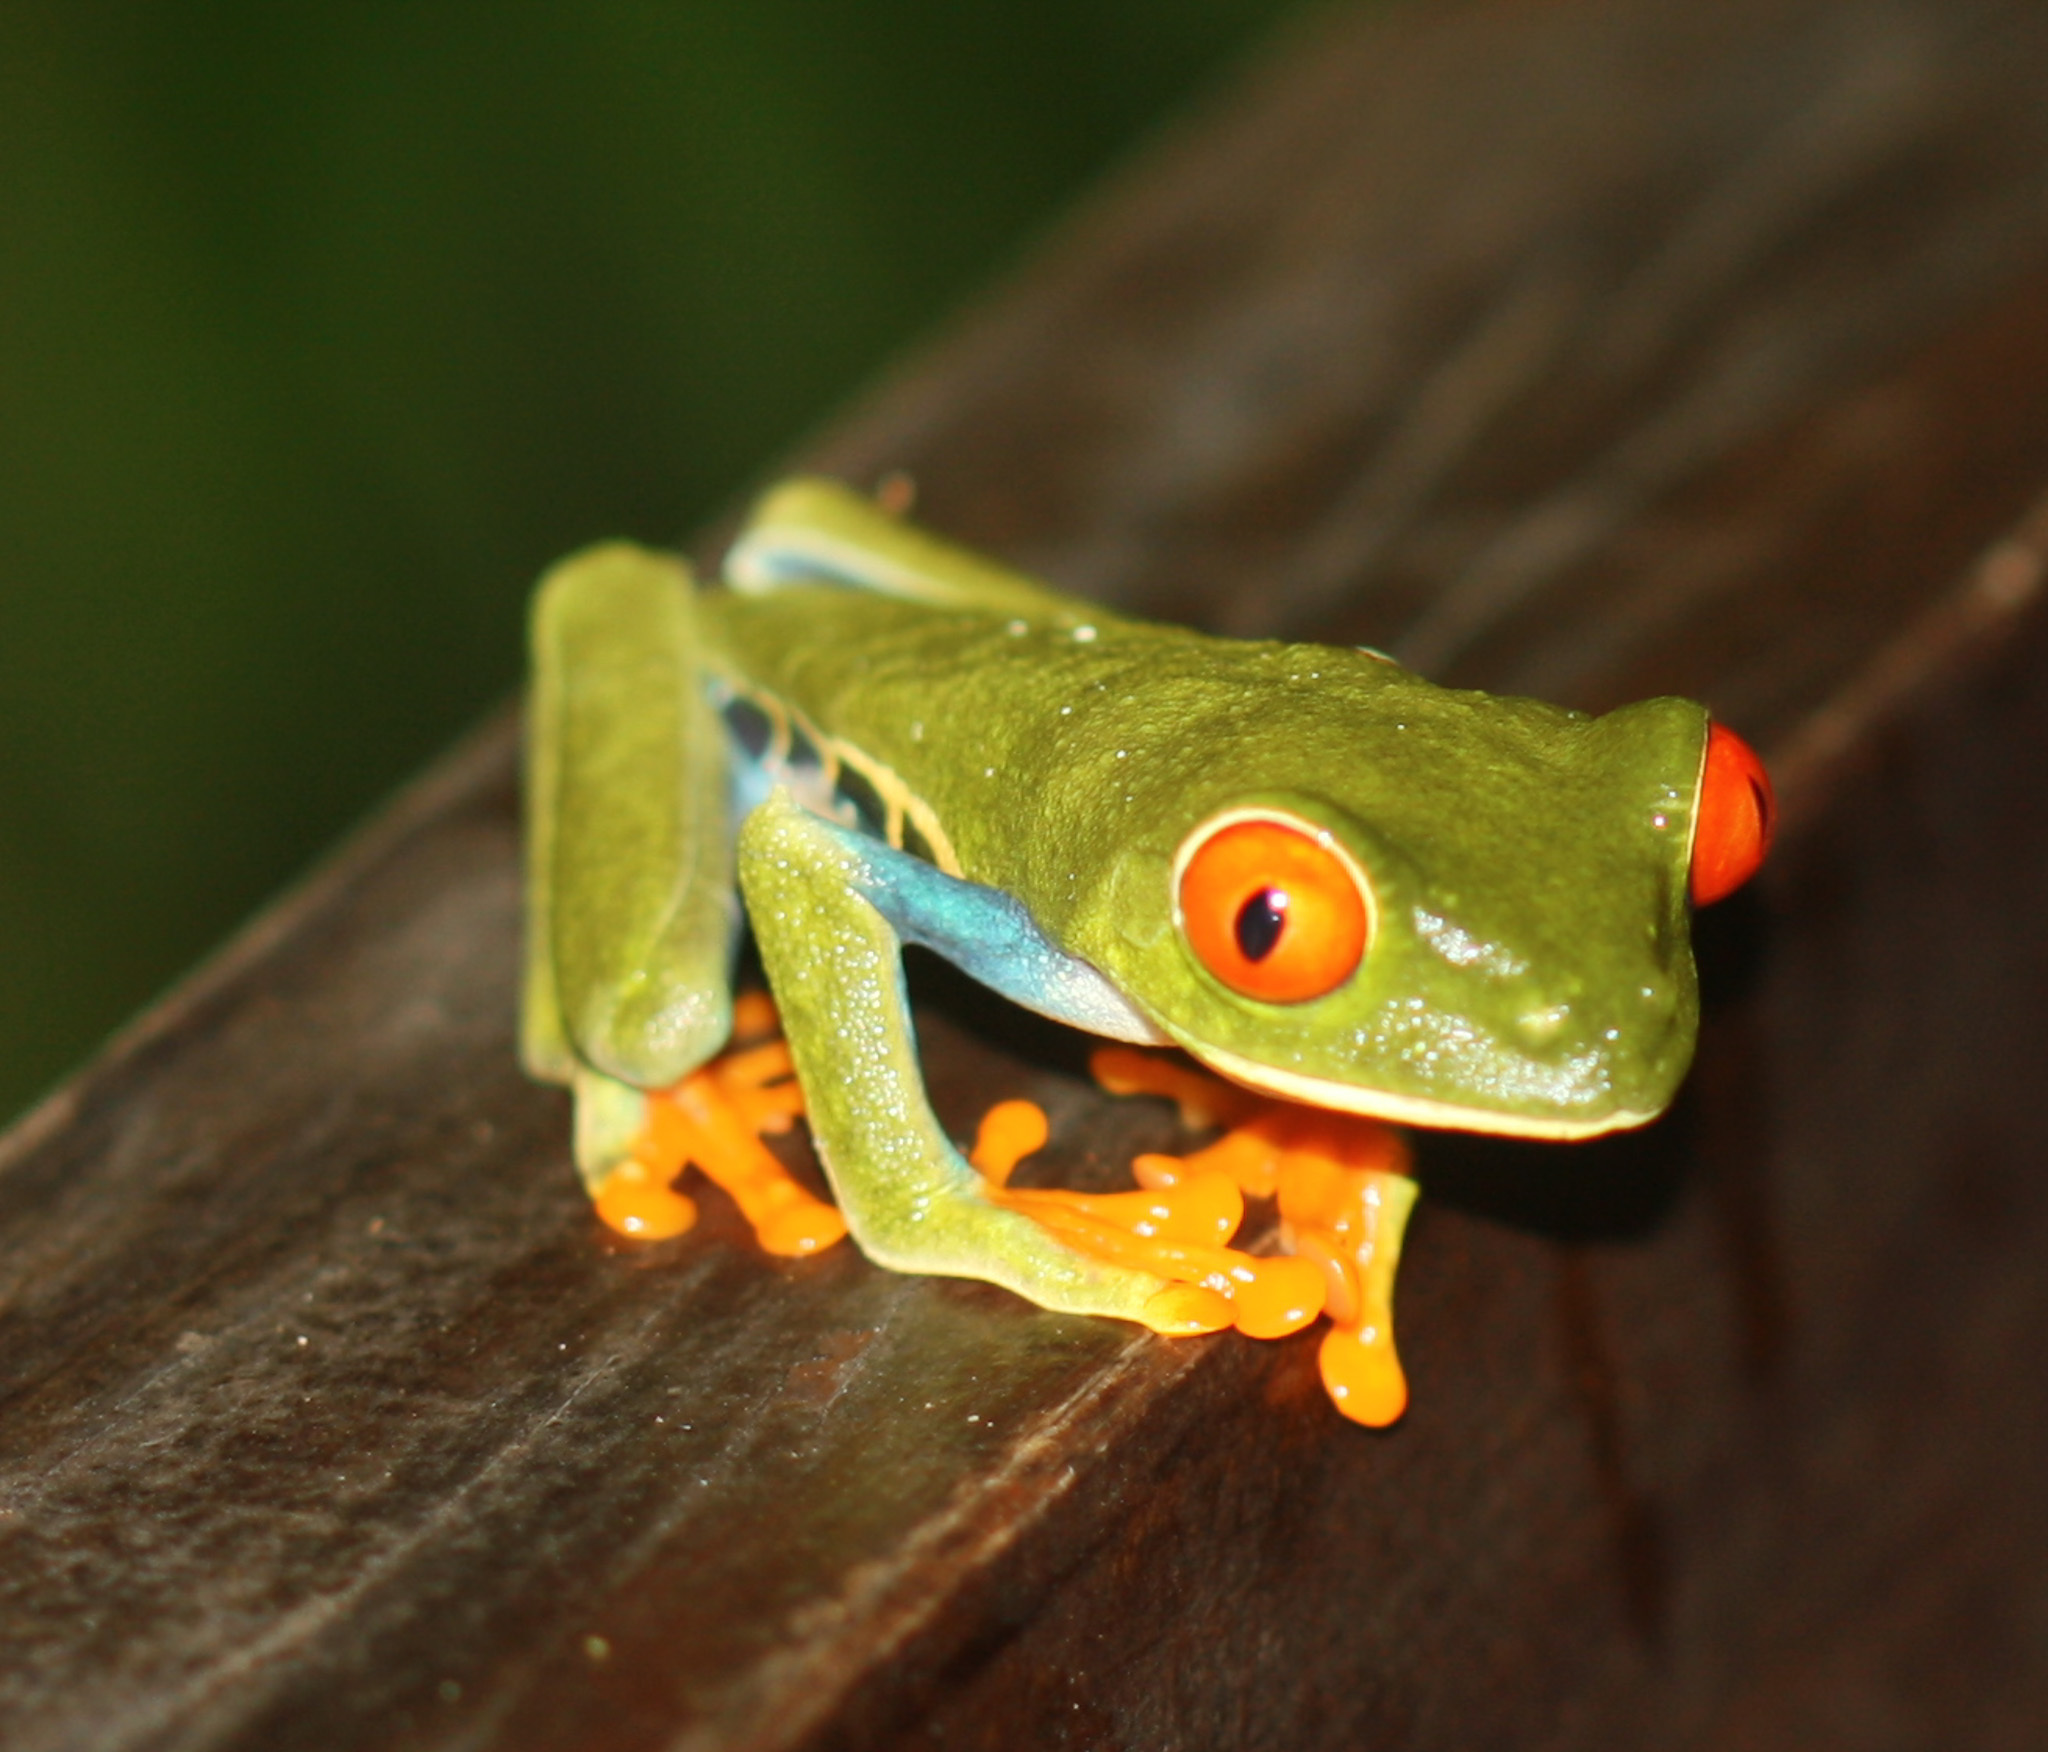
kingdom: Animalia
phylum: Chordata
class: Amphibia
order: Anura
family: Phyllomedusidae
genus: Agalychnis
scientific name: Agalychnis callidryas
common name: Red-eyed treefrog
